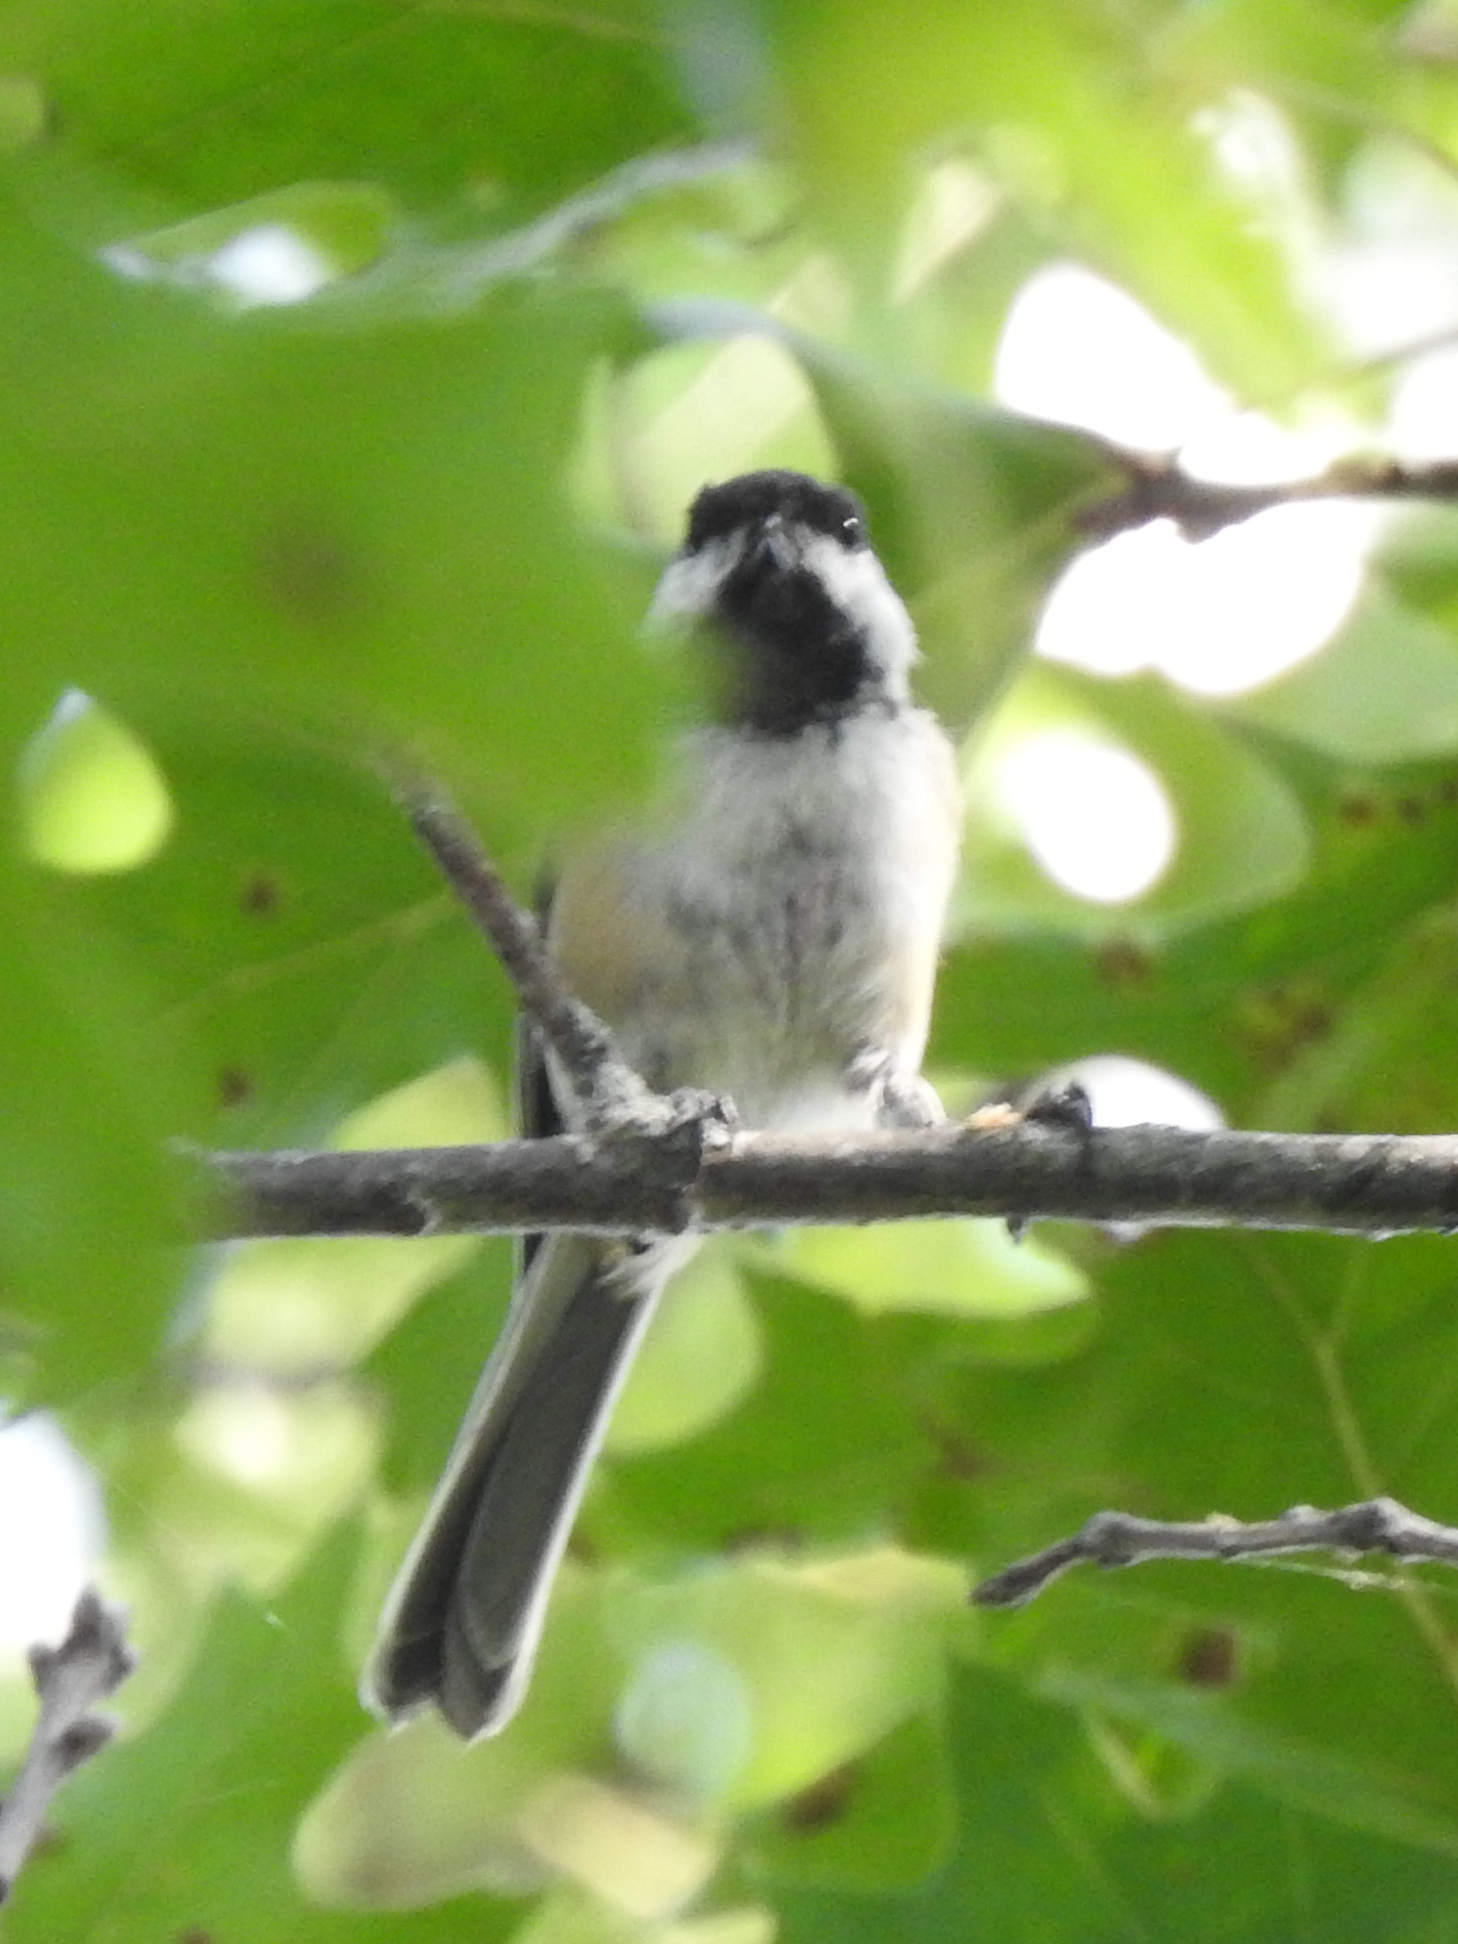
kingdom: Animalia
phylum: Chordata
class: Aves
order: Passeriformes
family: Paridae
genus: Poecile
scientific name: Poecile atricapillus
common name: Black-capped chickadee
